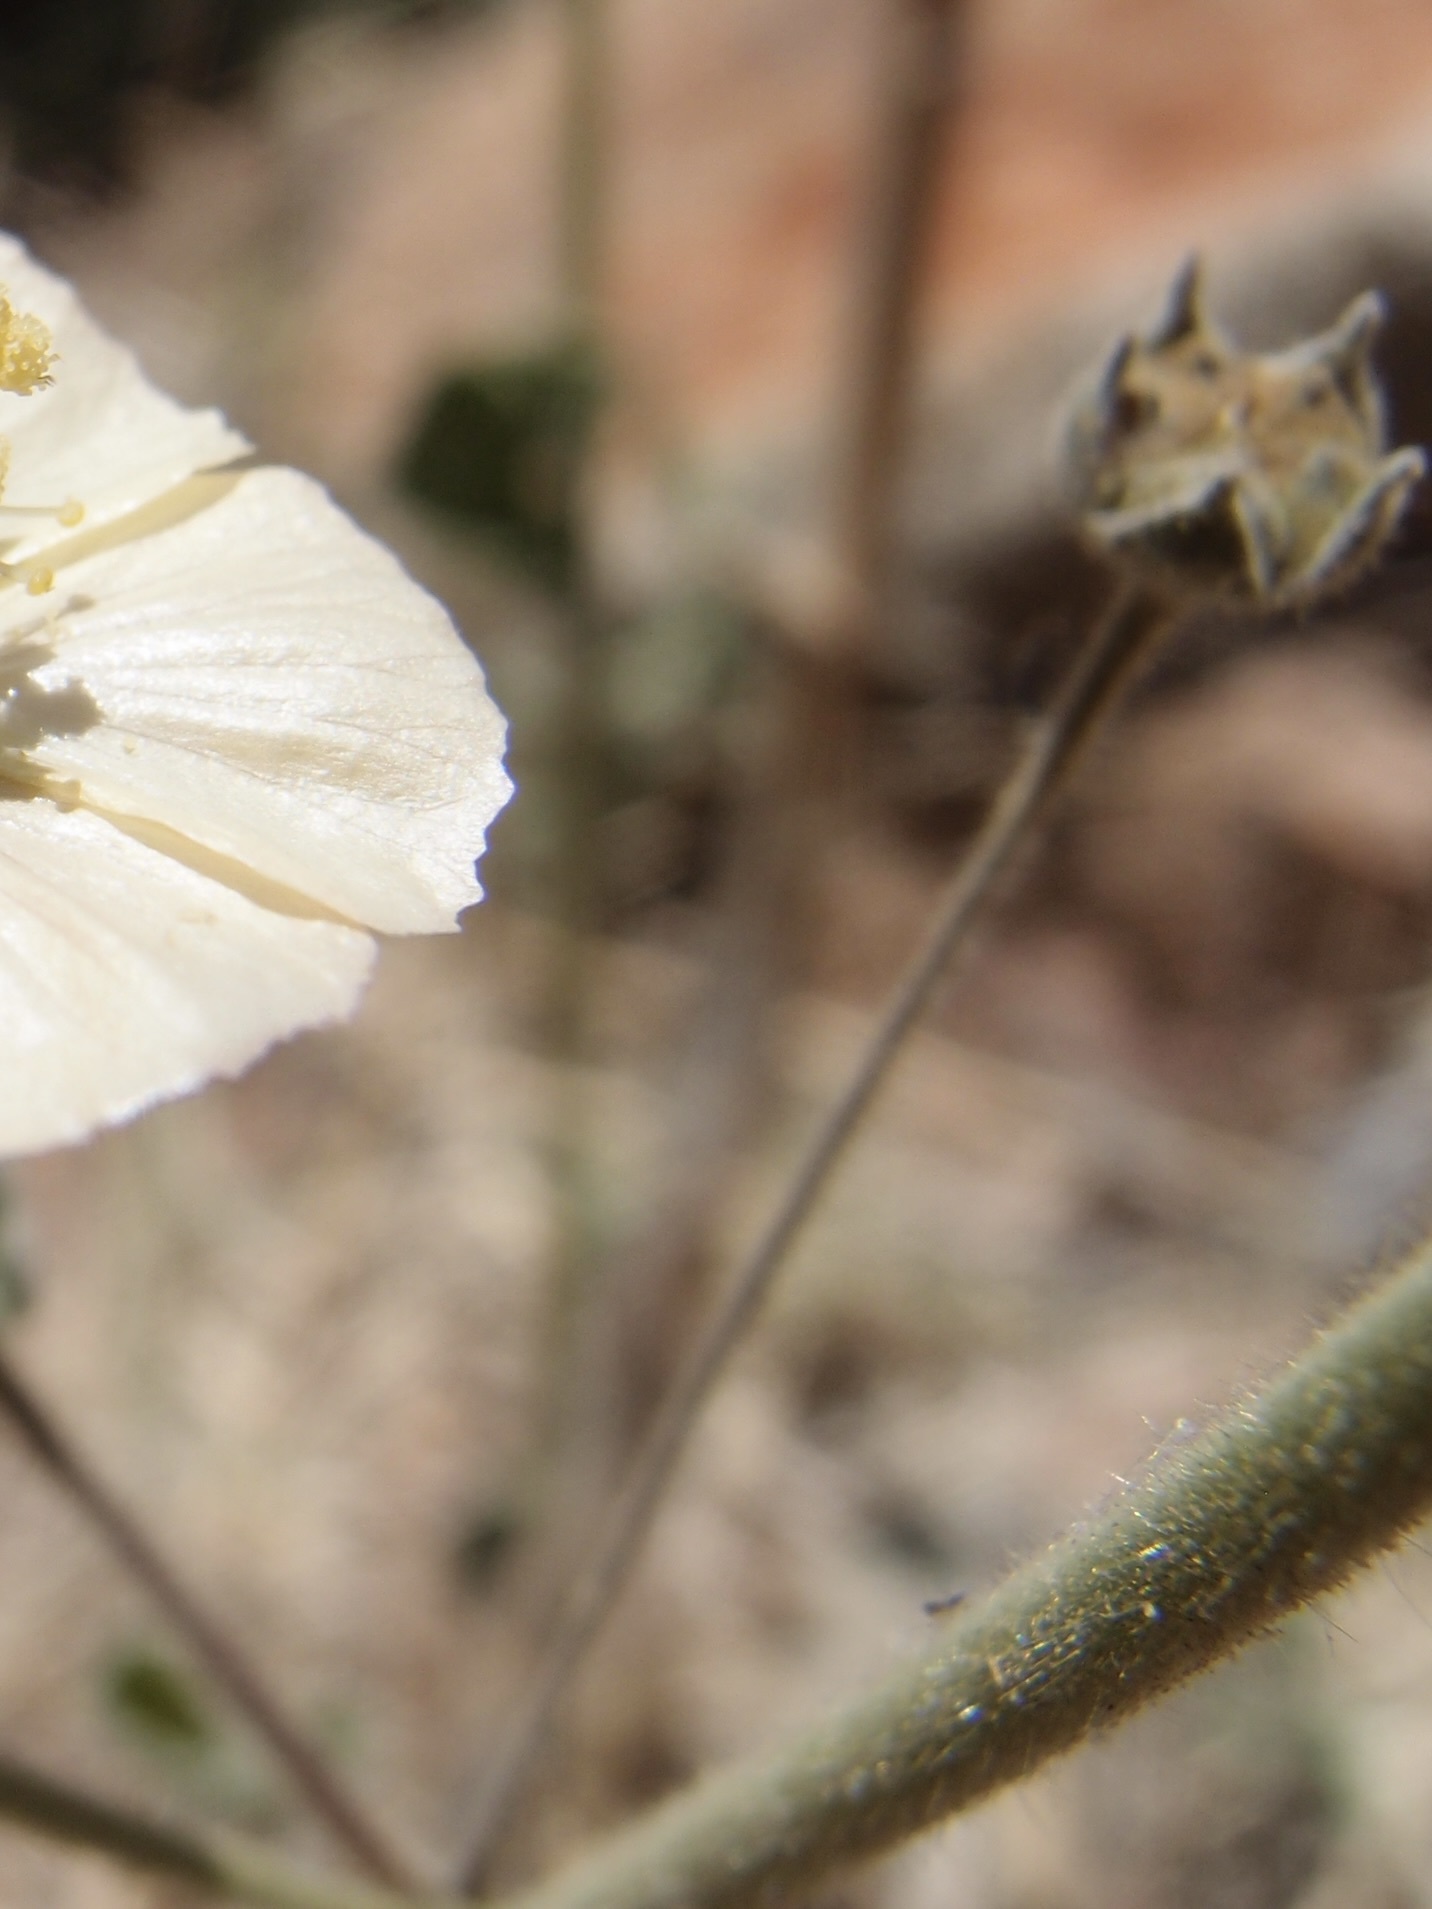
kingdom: Plantae
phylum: Tracheophyta
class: Magnoliopsida
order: Malvales
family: Malvaceae
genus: Anoda
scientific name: Anoda abutiloides
